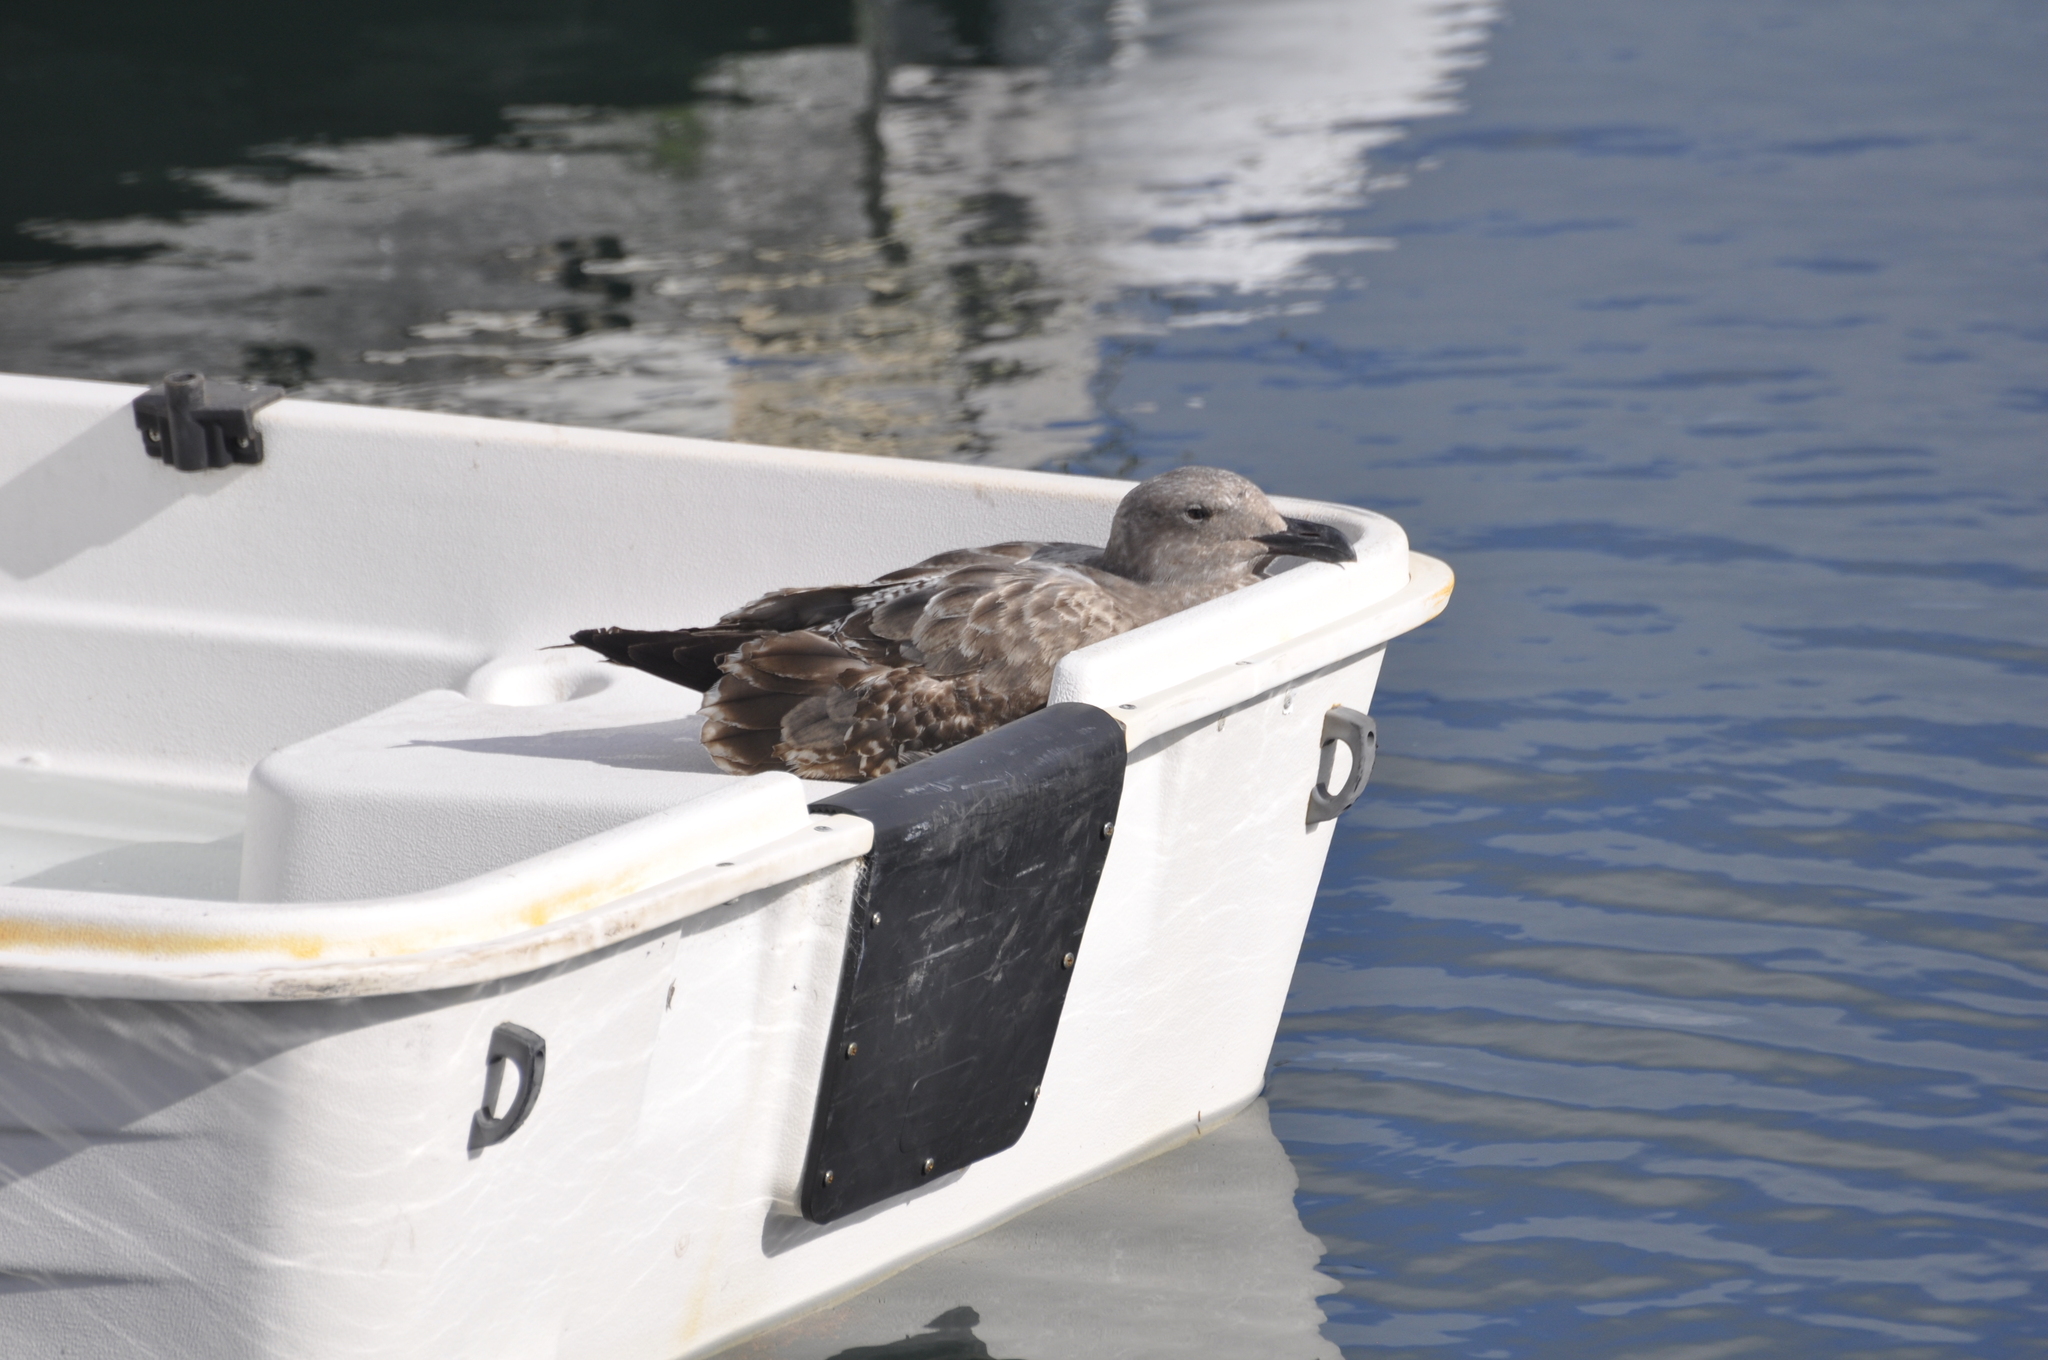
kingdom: Animalia
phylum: Chordata
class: Aves
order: Charadriiformes
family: Laridae
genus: Larus
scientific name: Larus occidentalis
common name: Western gull
